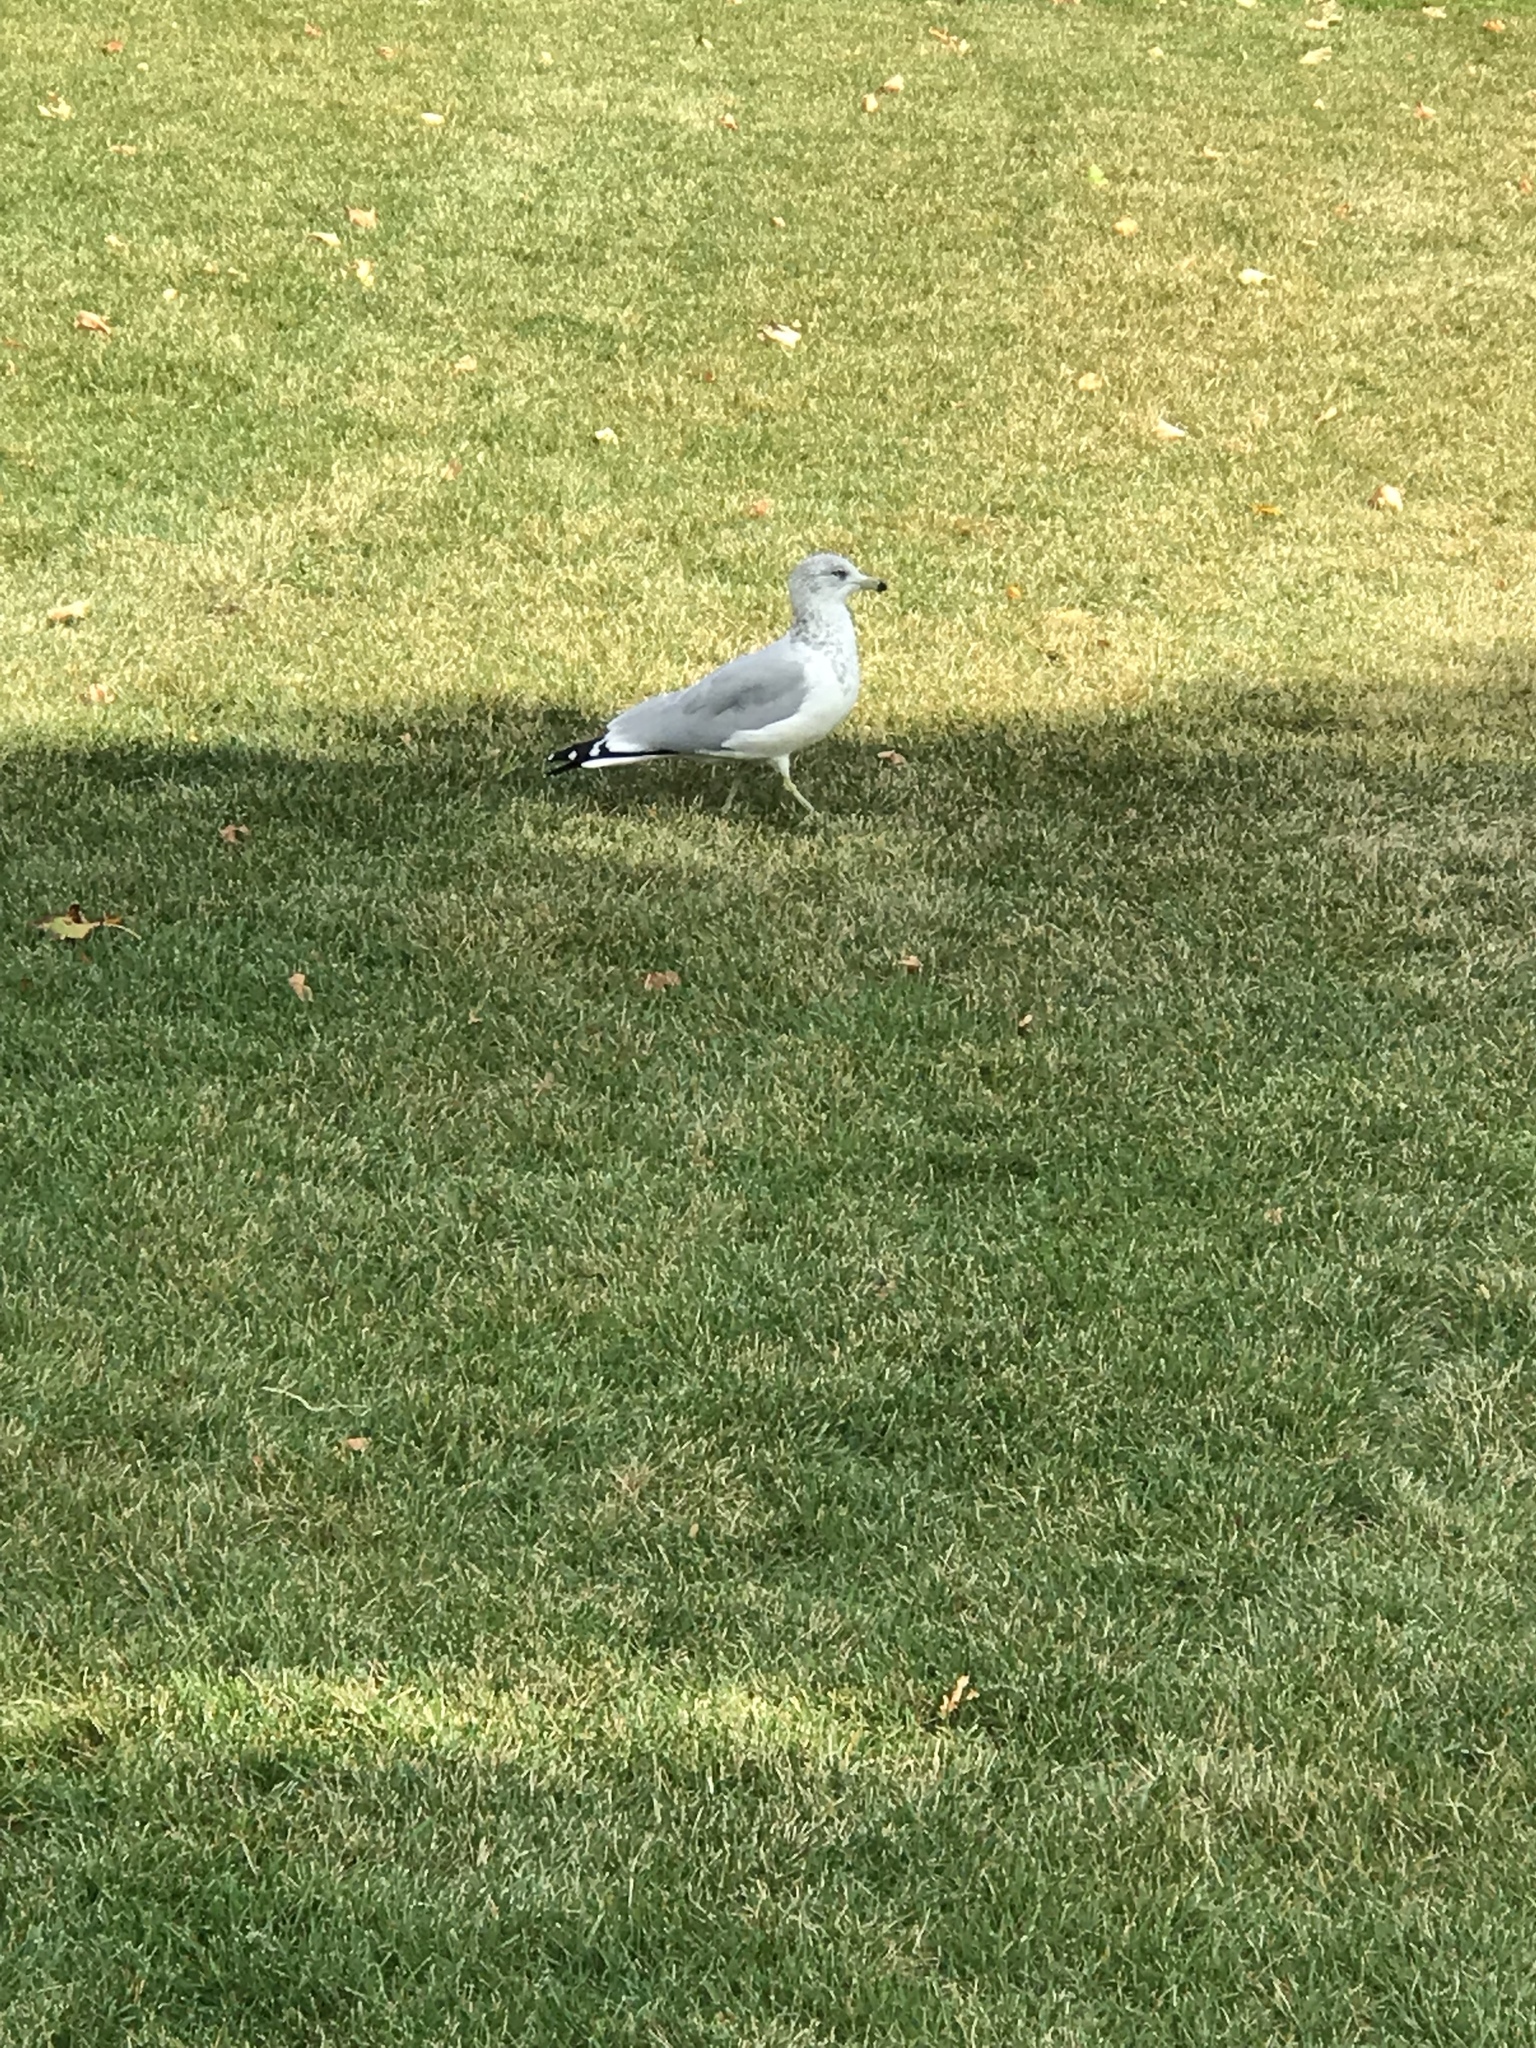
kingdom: Animalia
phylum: Chordata
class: Aves
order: Charadriiformes
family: Laridae
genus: Larus
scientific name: Larus delawarensis
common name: Ring-billed gull
